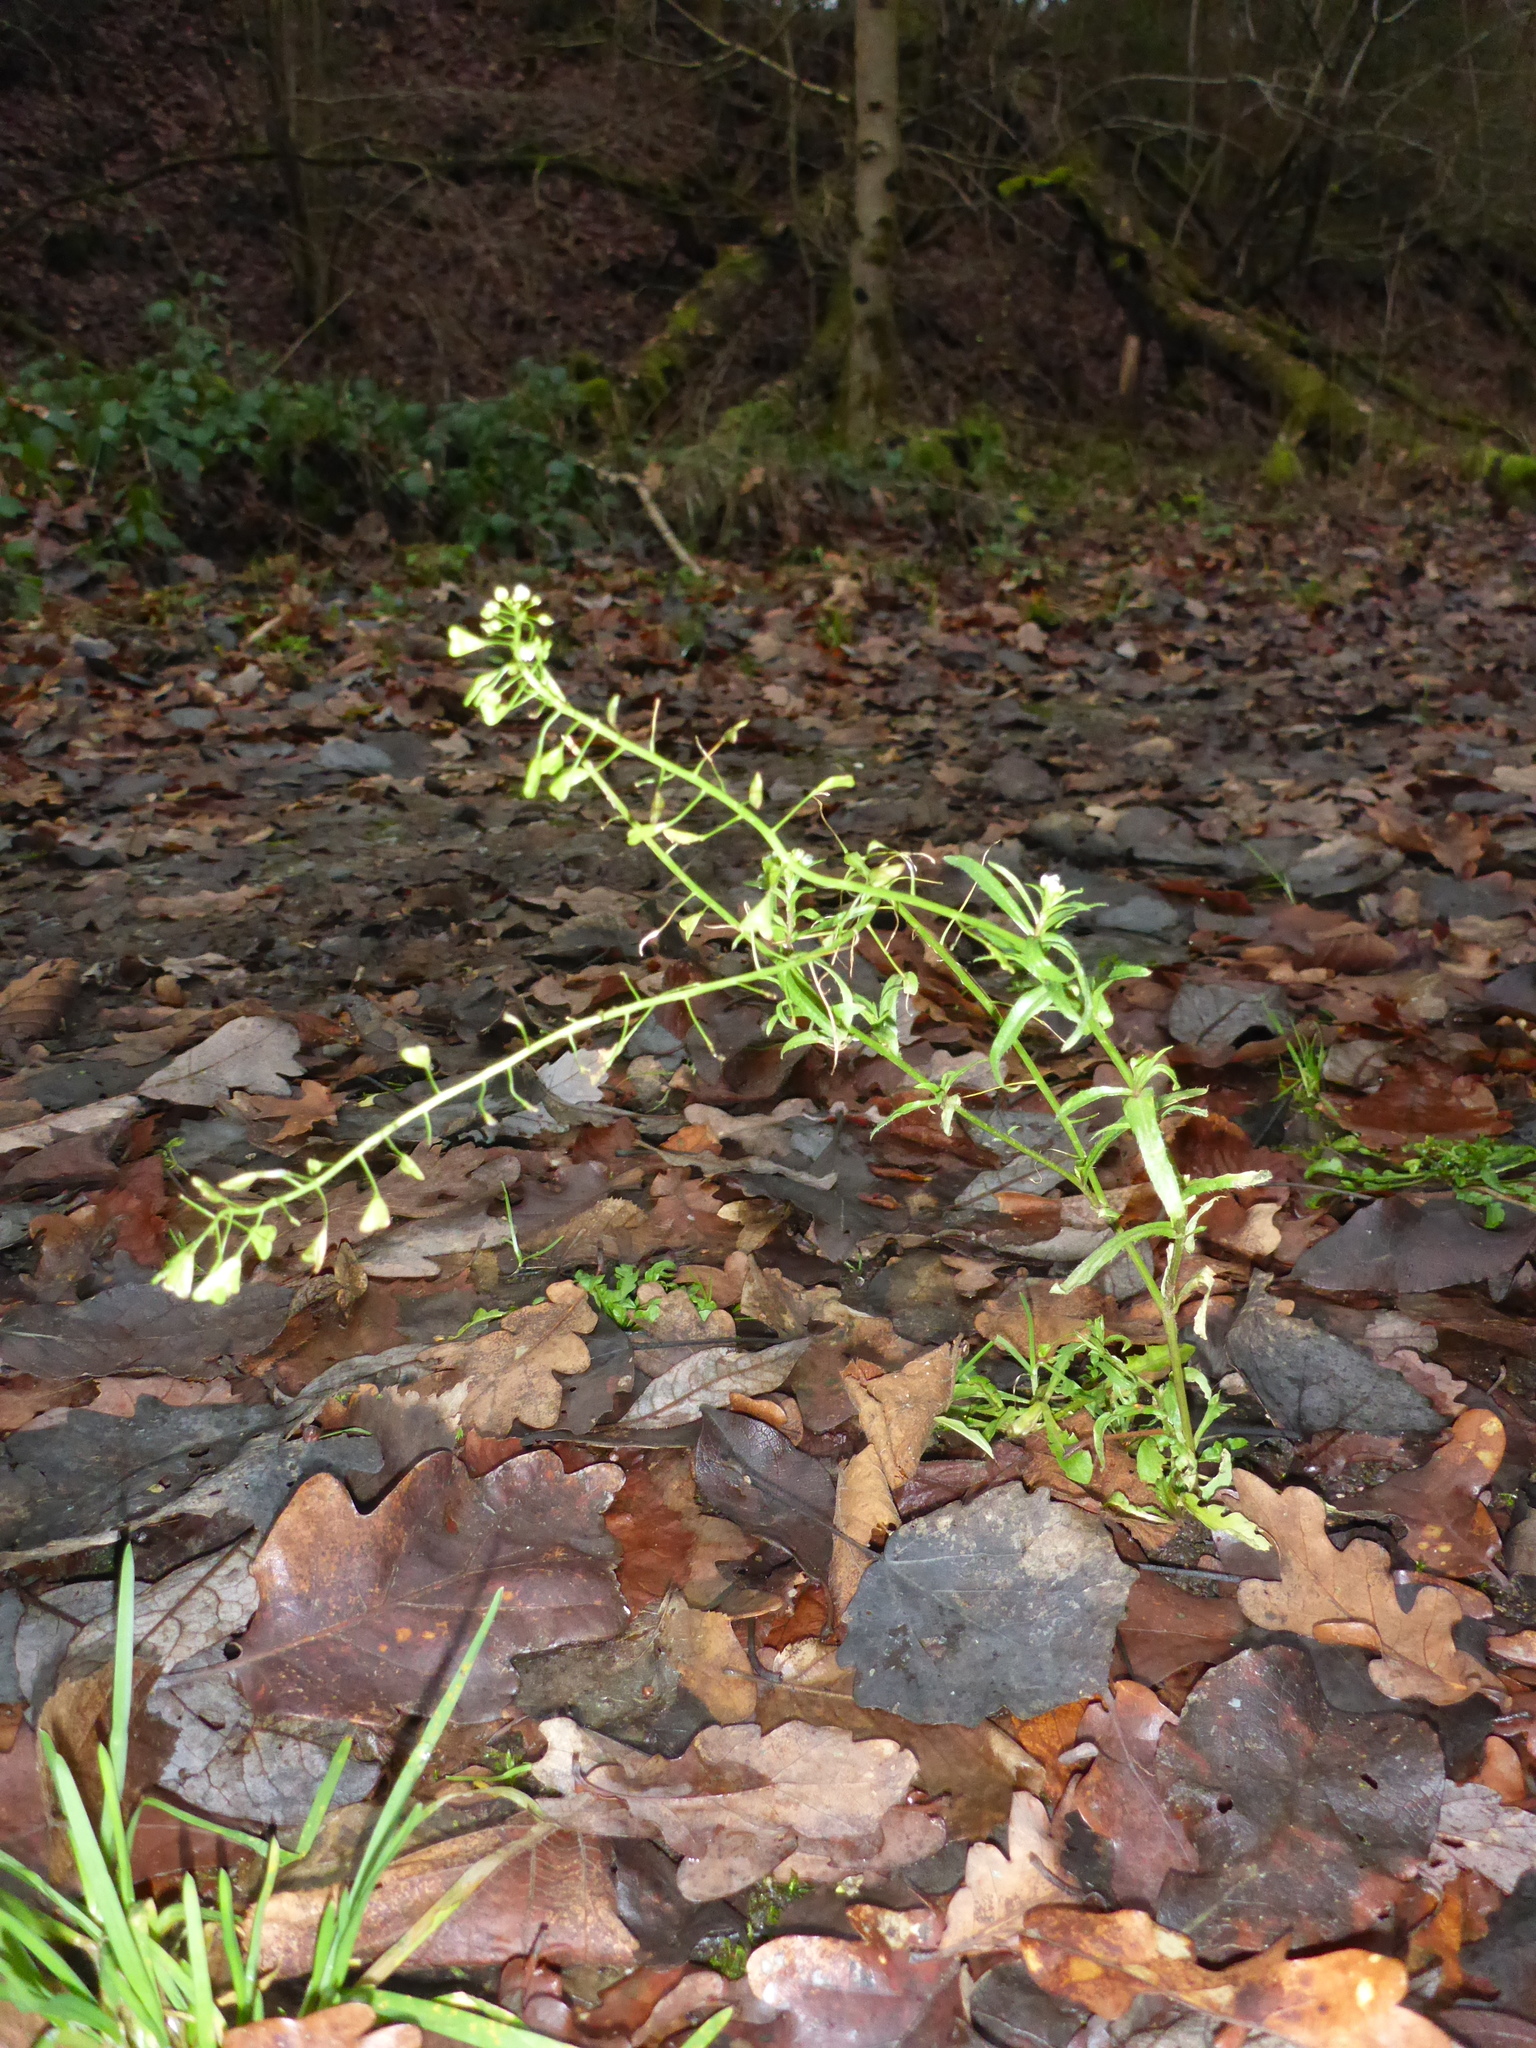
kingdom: Plantae
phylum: Tracheophyta
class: Magnoliopsida
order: Brassicales
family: Brassicaceae
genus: Capsella
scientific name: Capsella bursa-pastoris
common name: Shepherd's purse
